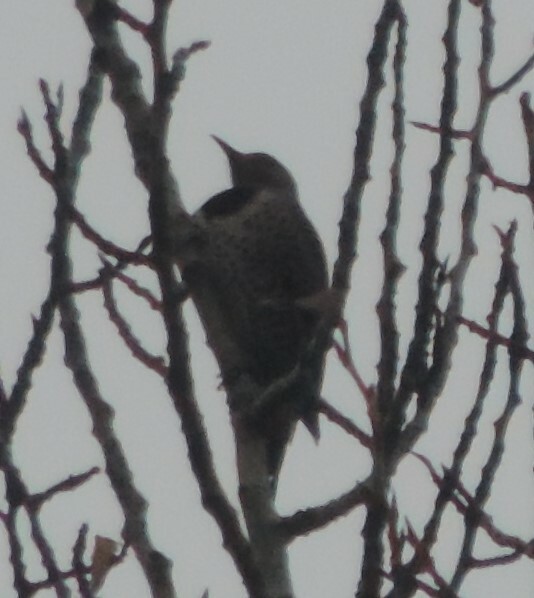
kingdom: Animalia
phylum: Chordata
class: Aves
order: Piciformes
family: Picidae
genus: Colaptes
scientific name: Colaptes auratus
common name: Northern flicker
